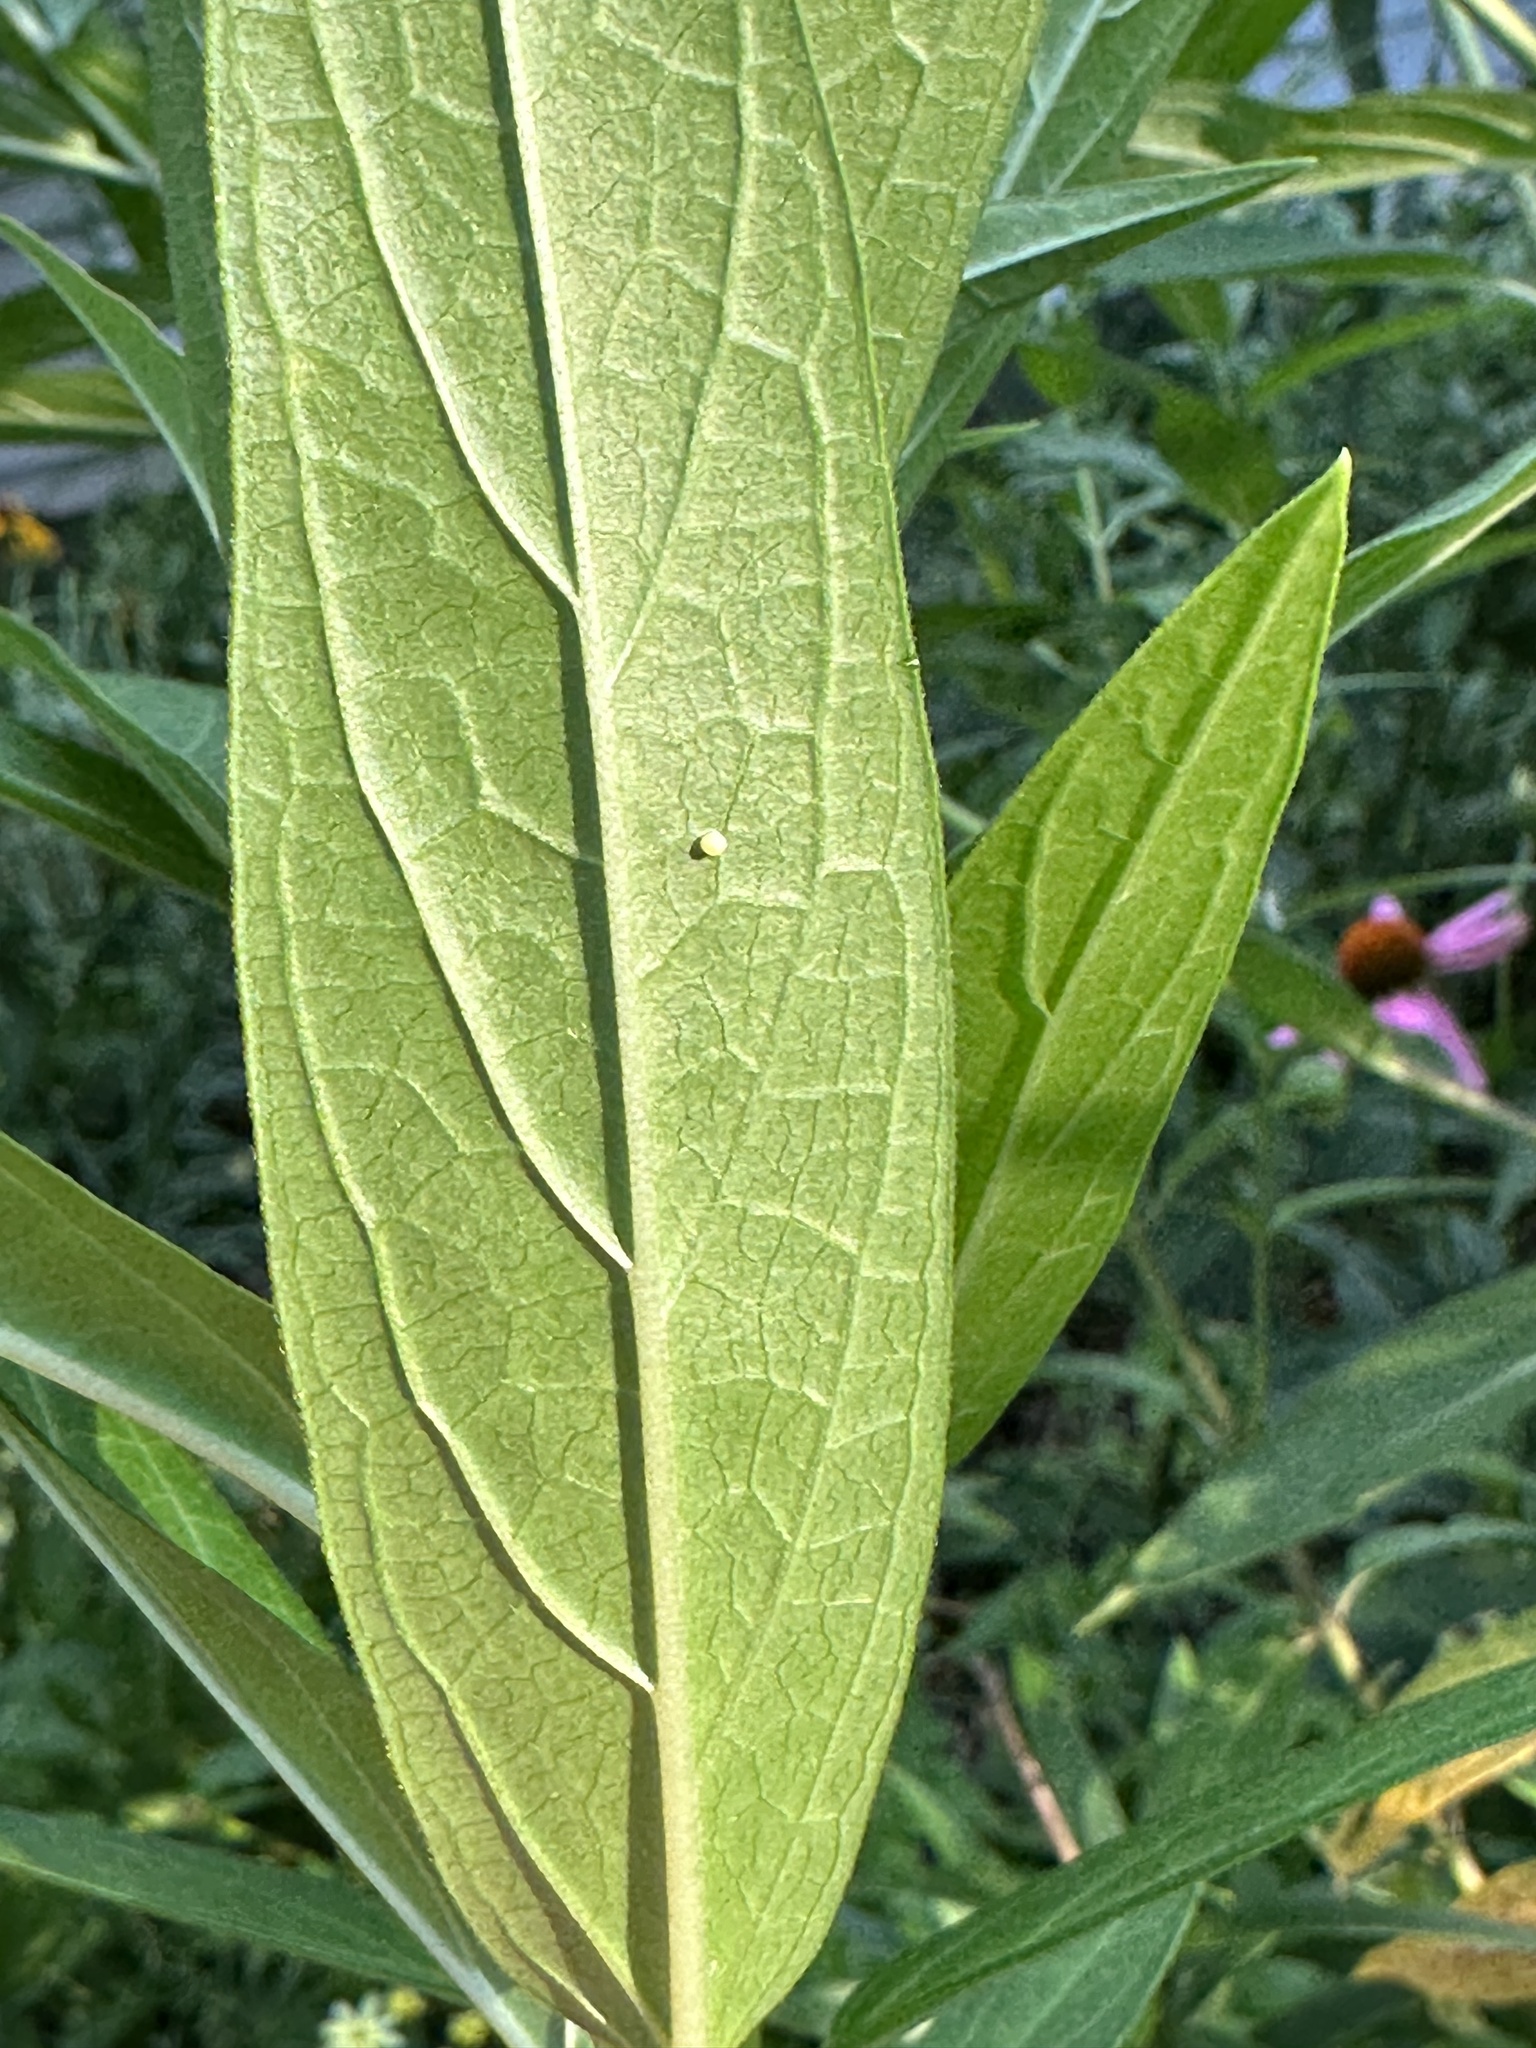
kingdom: Animalia
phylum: Arthropoda
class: Insecta
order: Lepidoptera
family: Nymphalidae
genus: Danaus
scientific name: Danaus plexippus
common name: Monarch
